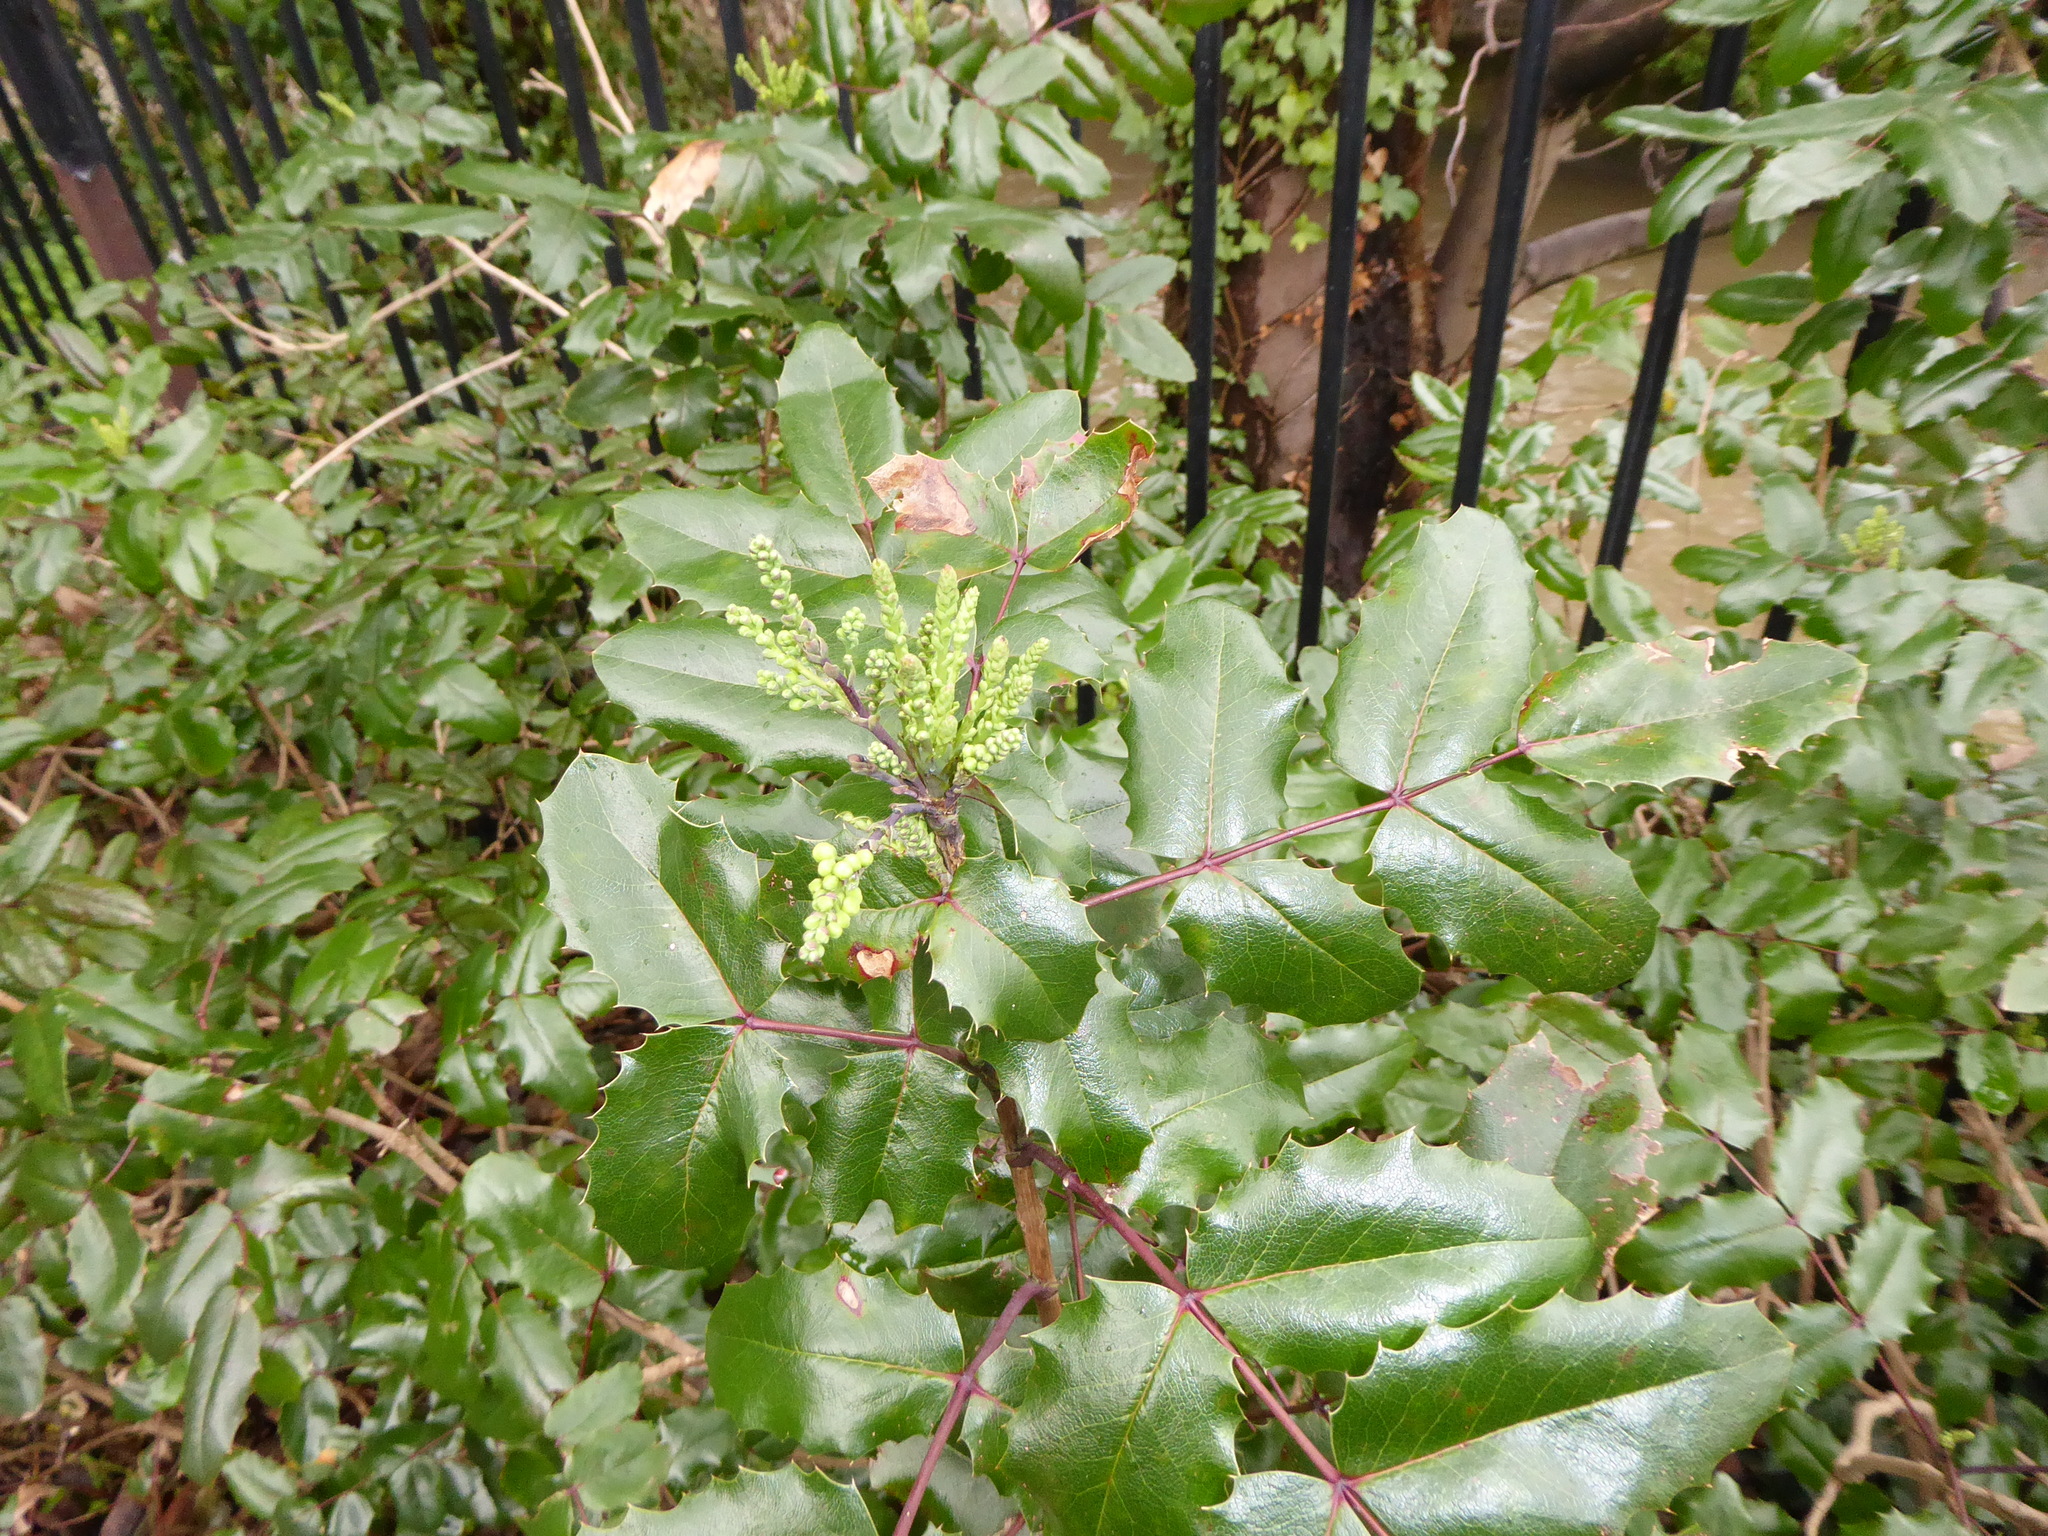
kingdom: Plantae
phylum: Tracheophyta
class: Magnoliopsida
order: Ranunculales
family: Berberidaceae
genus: Mahonia
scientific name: Mahonia aquifolium
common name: Oregon-grape
